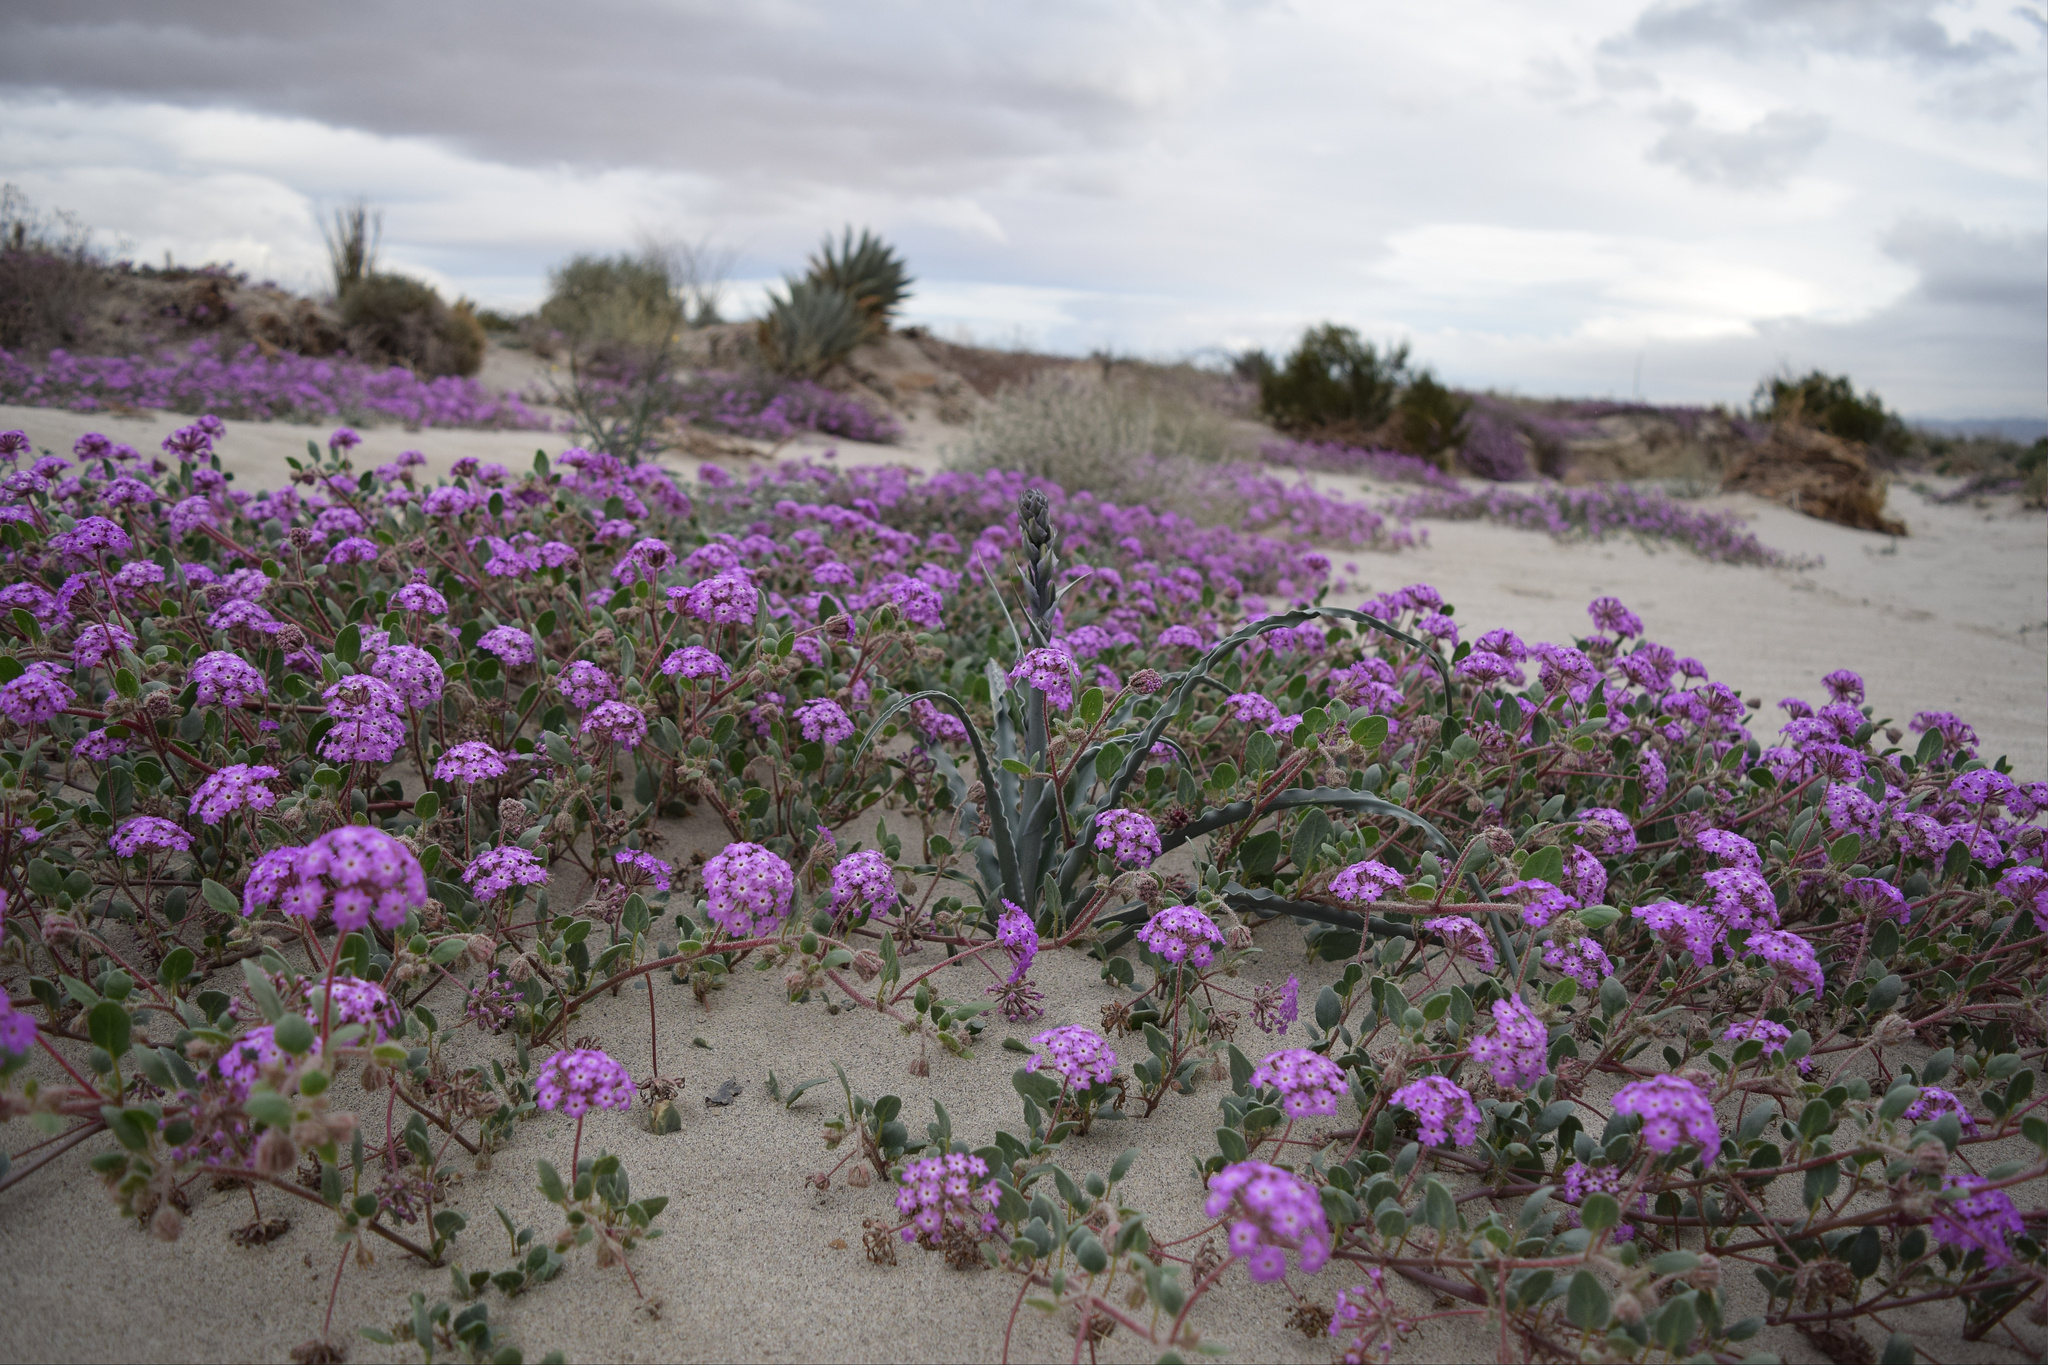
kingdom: Plantae
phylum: Tracheophyta
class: Liliopsida
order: Asparagales
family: Asparagaceae
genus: Hesperocallis
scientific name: Hesperocallis undulata
